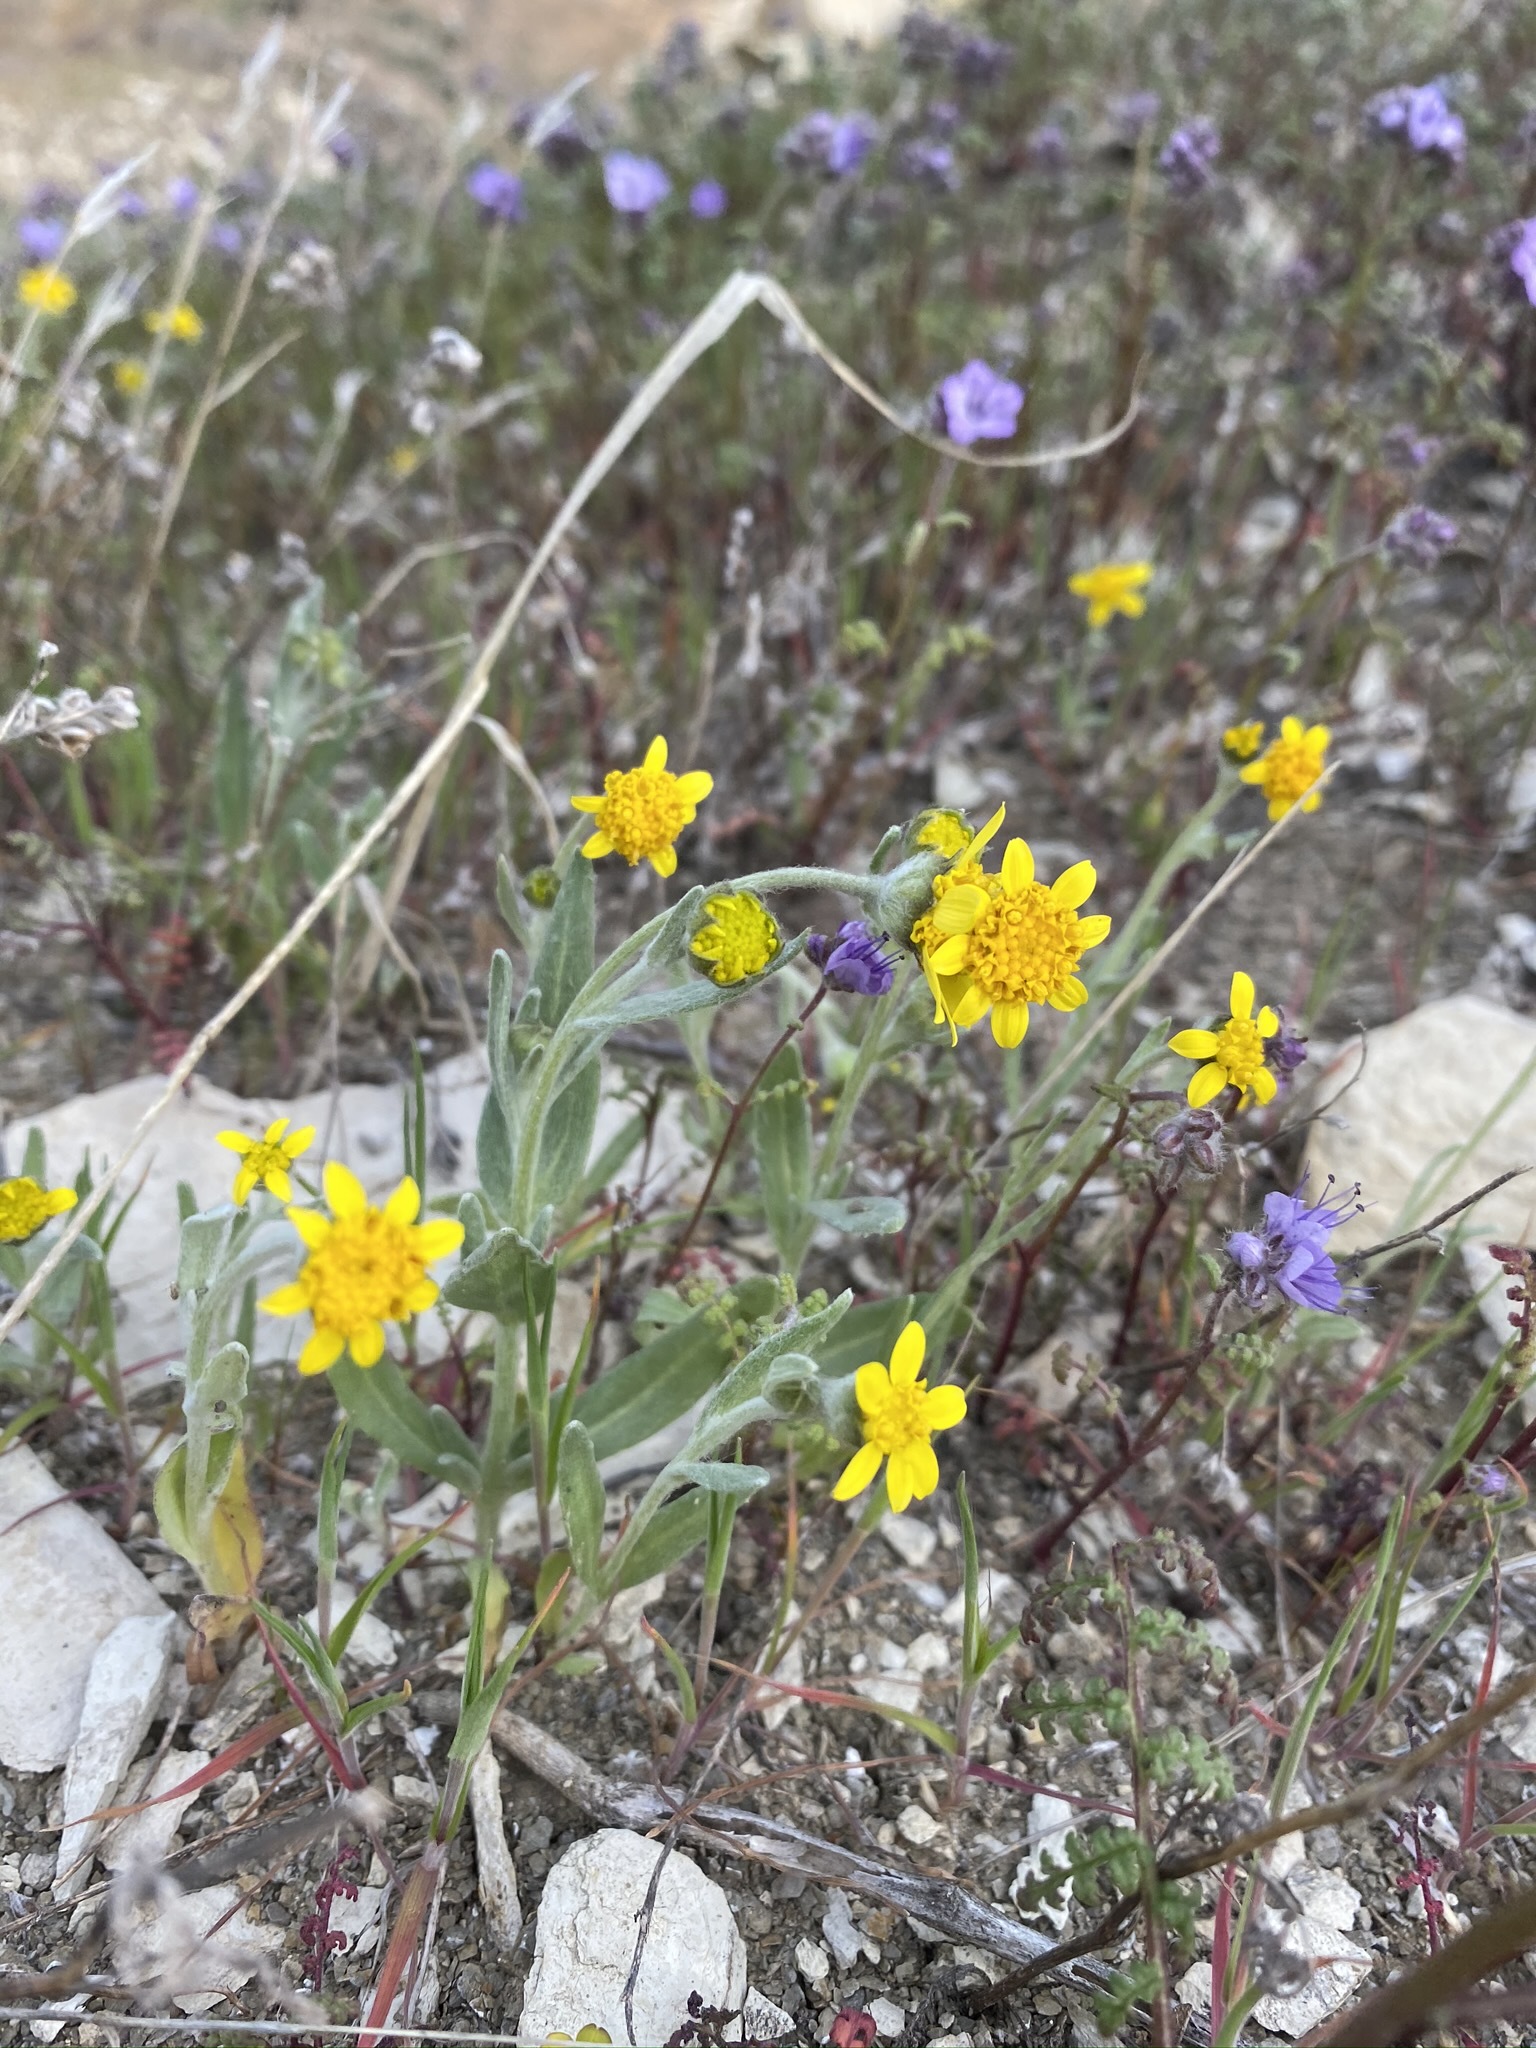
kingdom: Plantae
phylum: Tracheophyta
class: Magnoliopsida
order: Asterales
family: Asteraceae
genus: Monolopia
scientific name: Monolopia stricta
